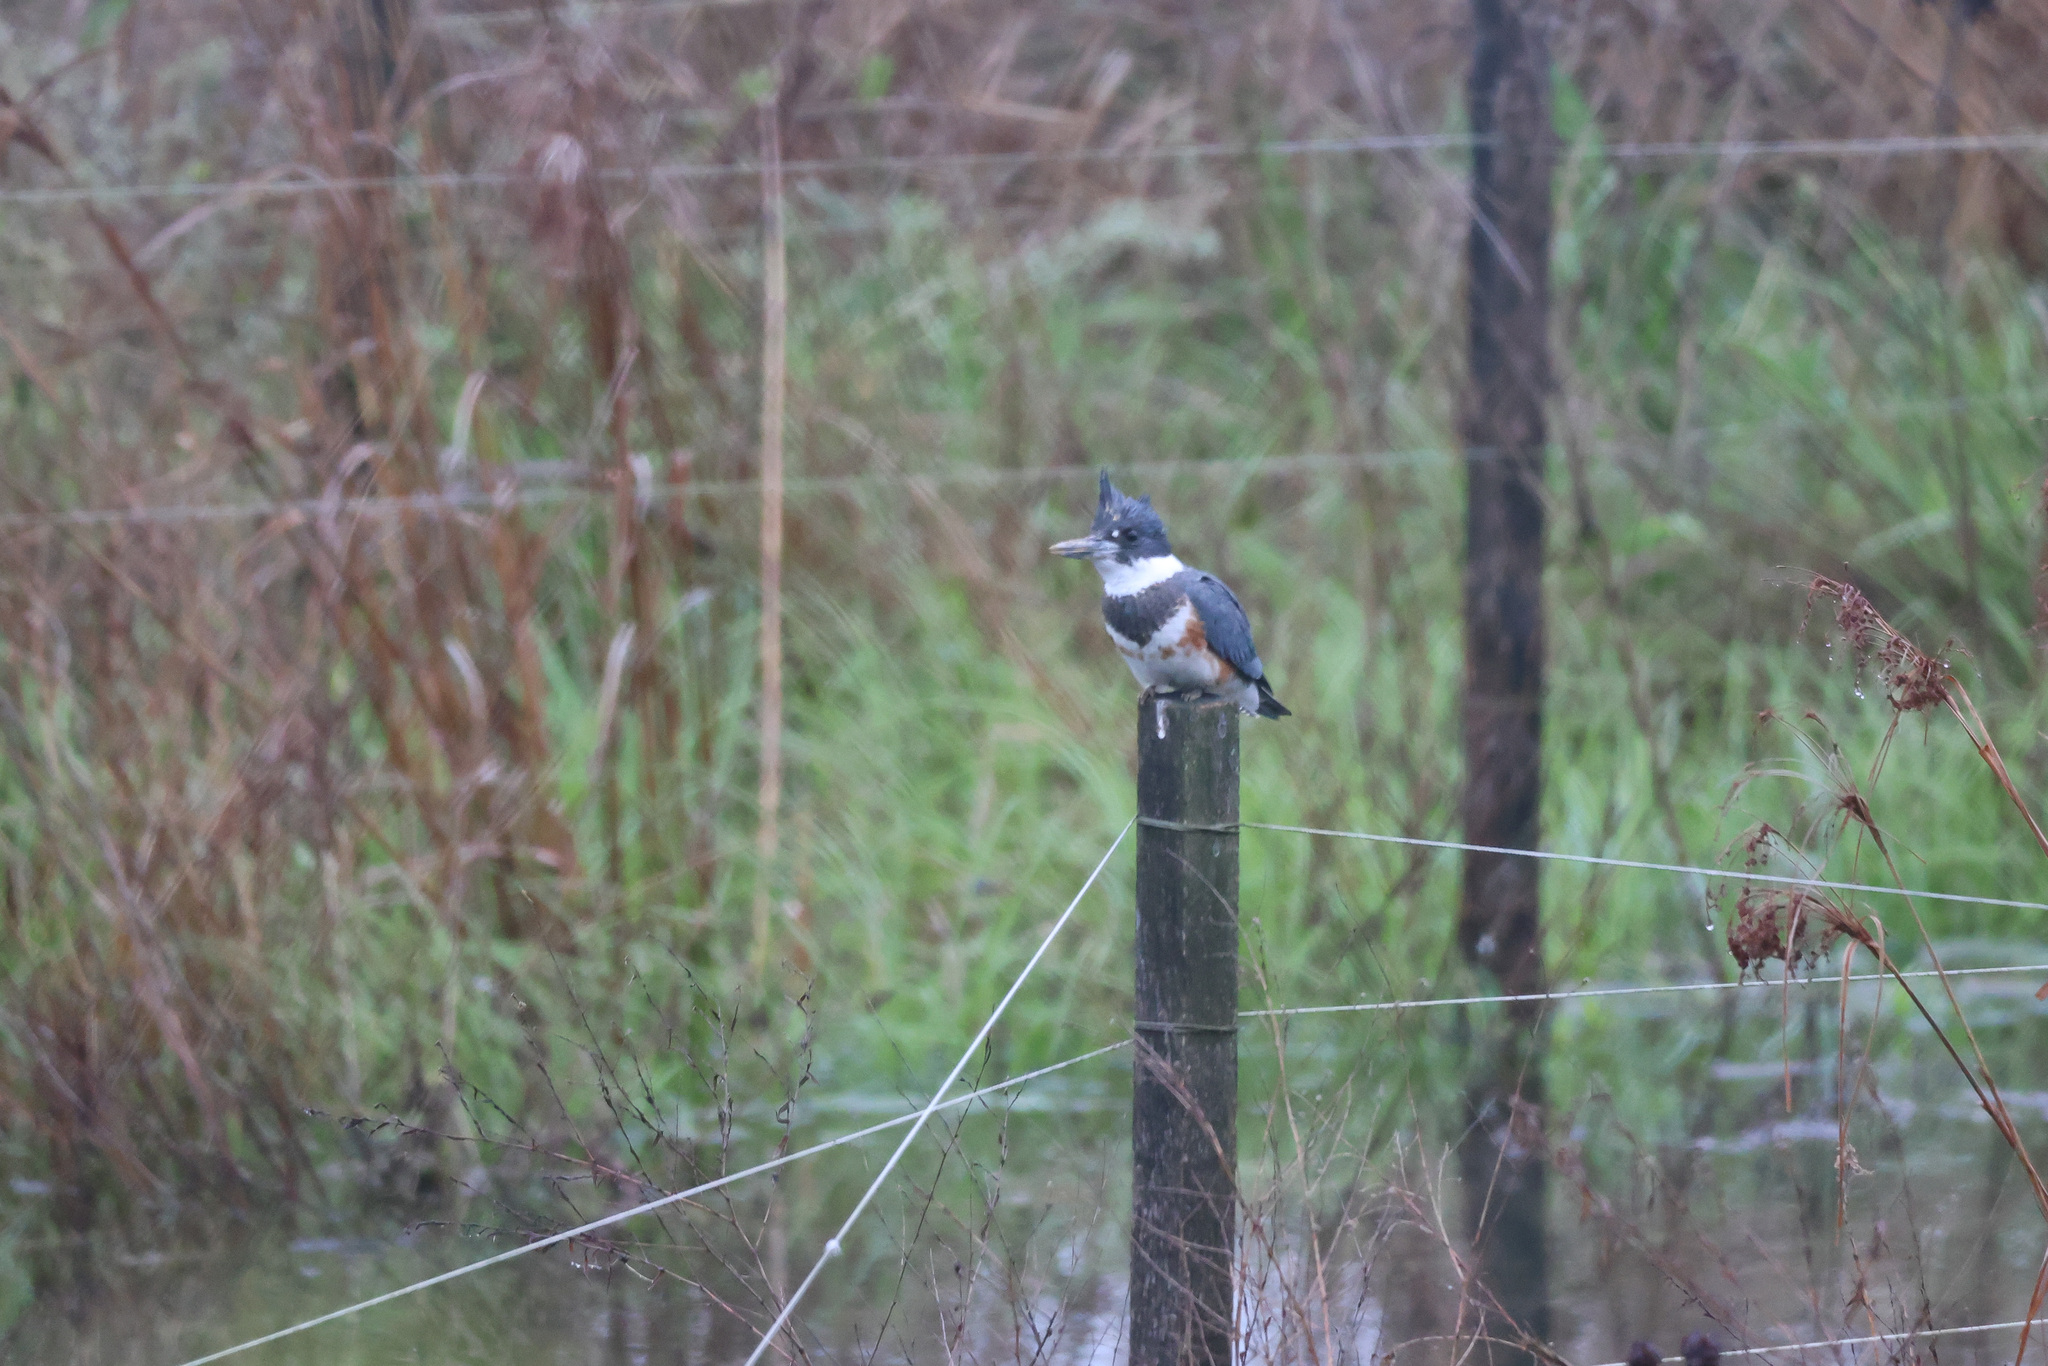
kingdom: Animalia
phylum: Chordata
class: Aves
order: Coraciiformes
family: Alcedinidae
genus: Megaceryle
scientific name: Megaceryle alcyon
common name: Belted kingfisher
